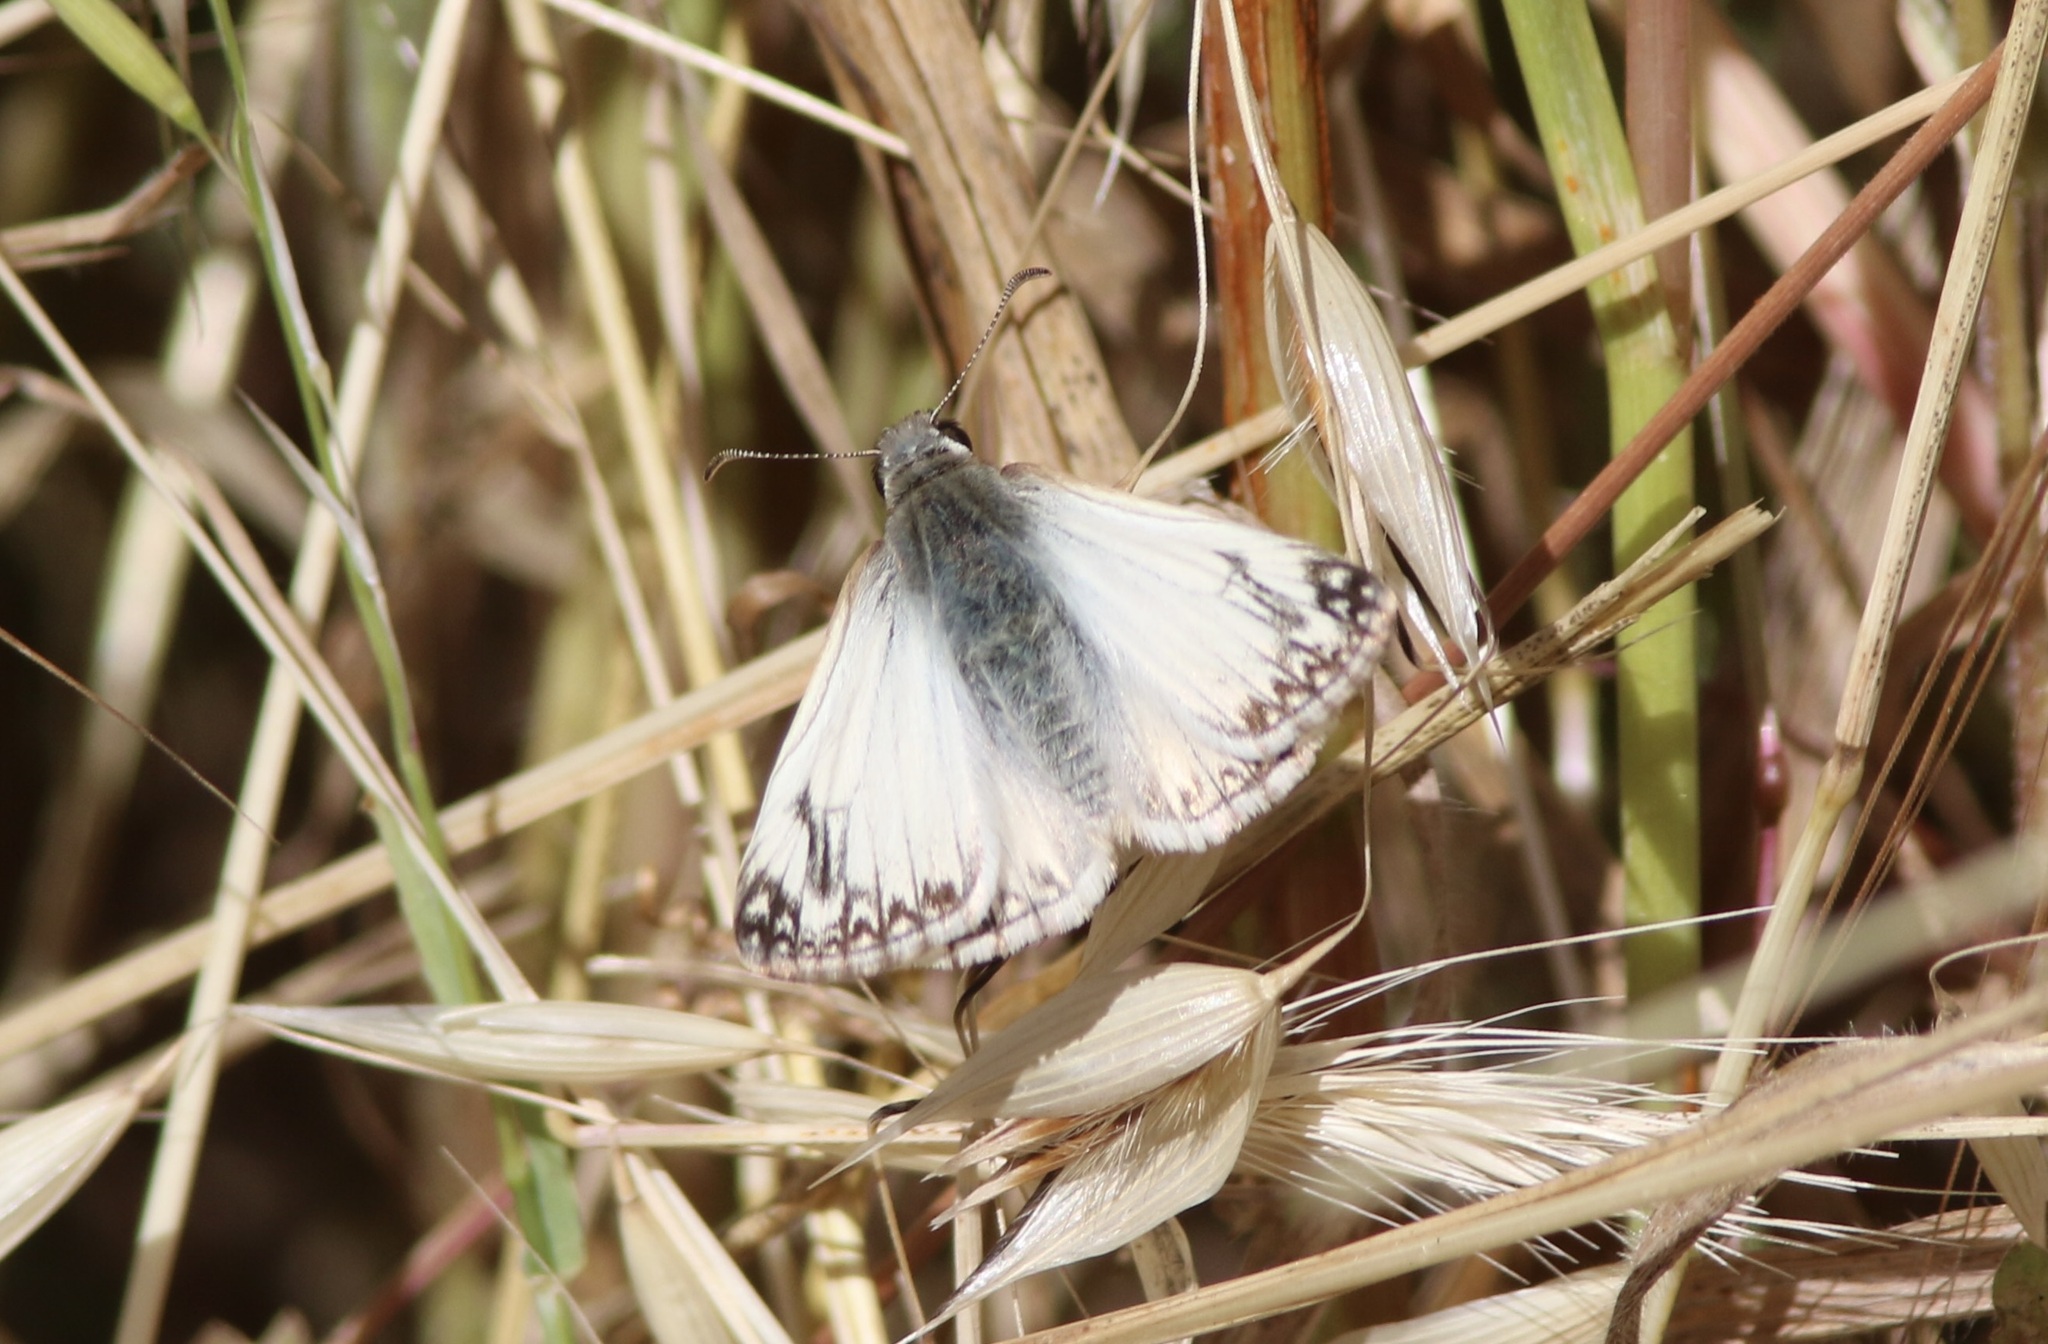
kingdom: Animalia
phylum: Arthropoda
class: Insecta
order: Lepidoptera
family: Hesperiidae
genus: Heliopetes
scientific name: Heliopetes ericetorum
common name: Northern white-skipper
